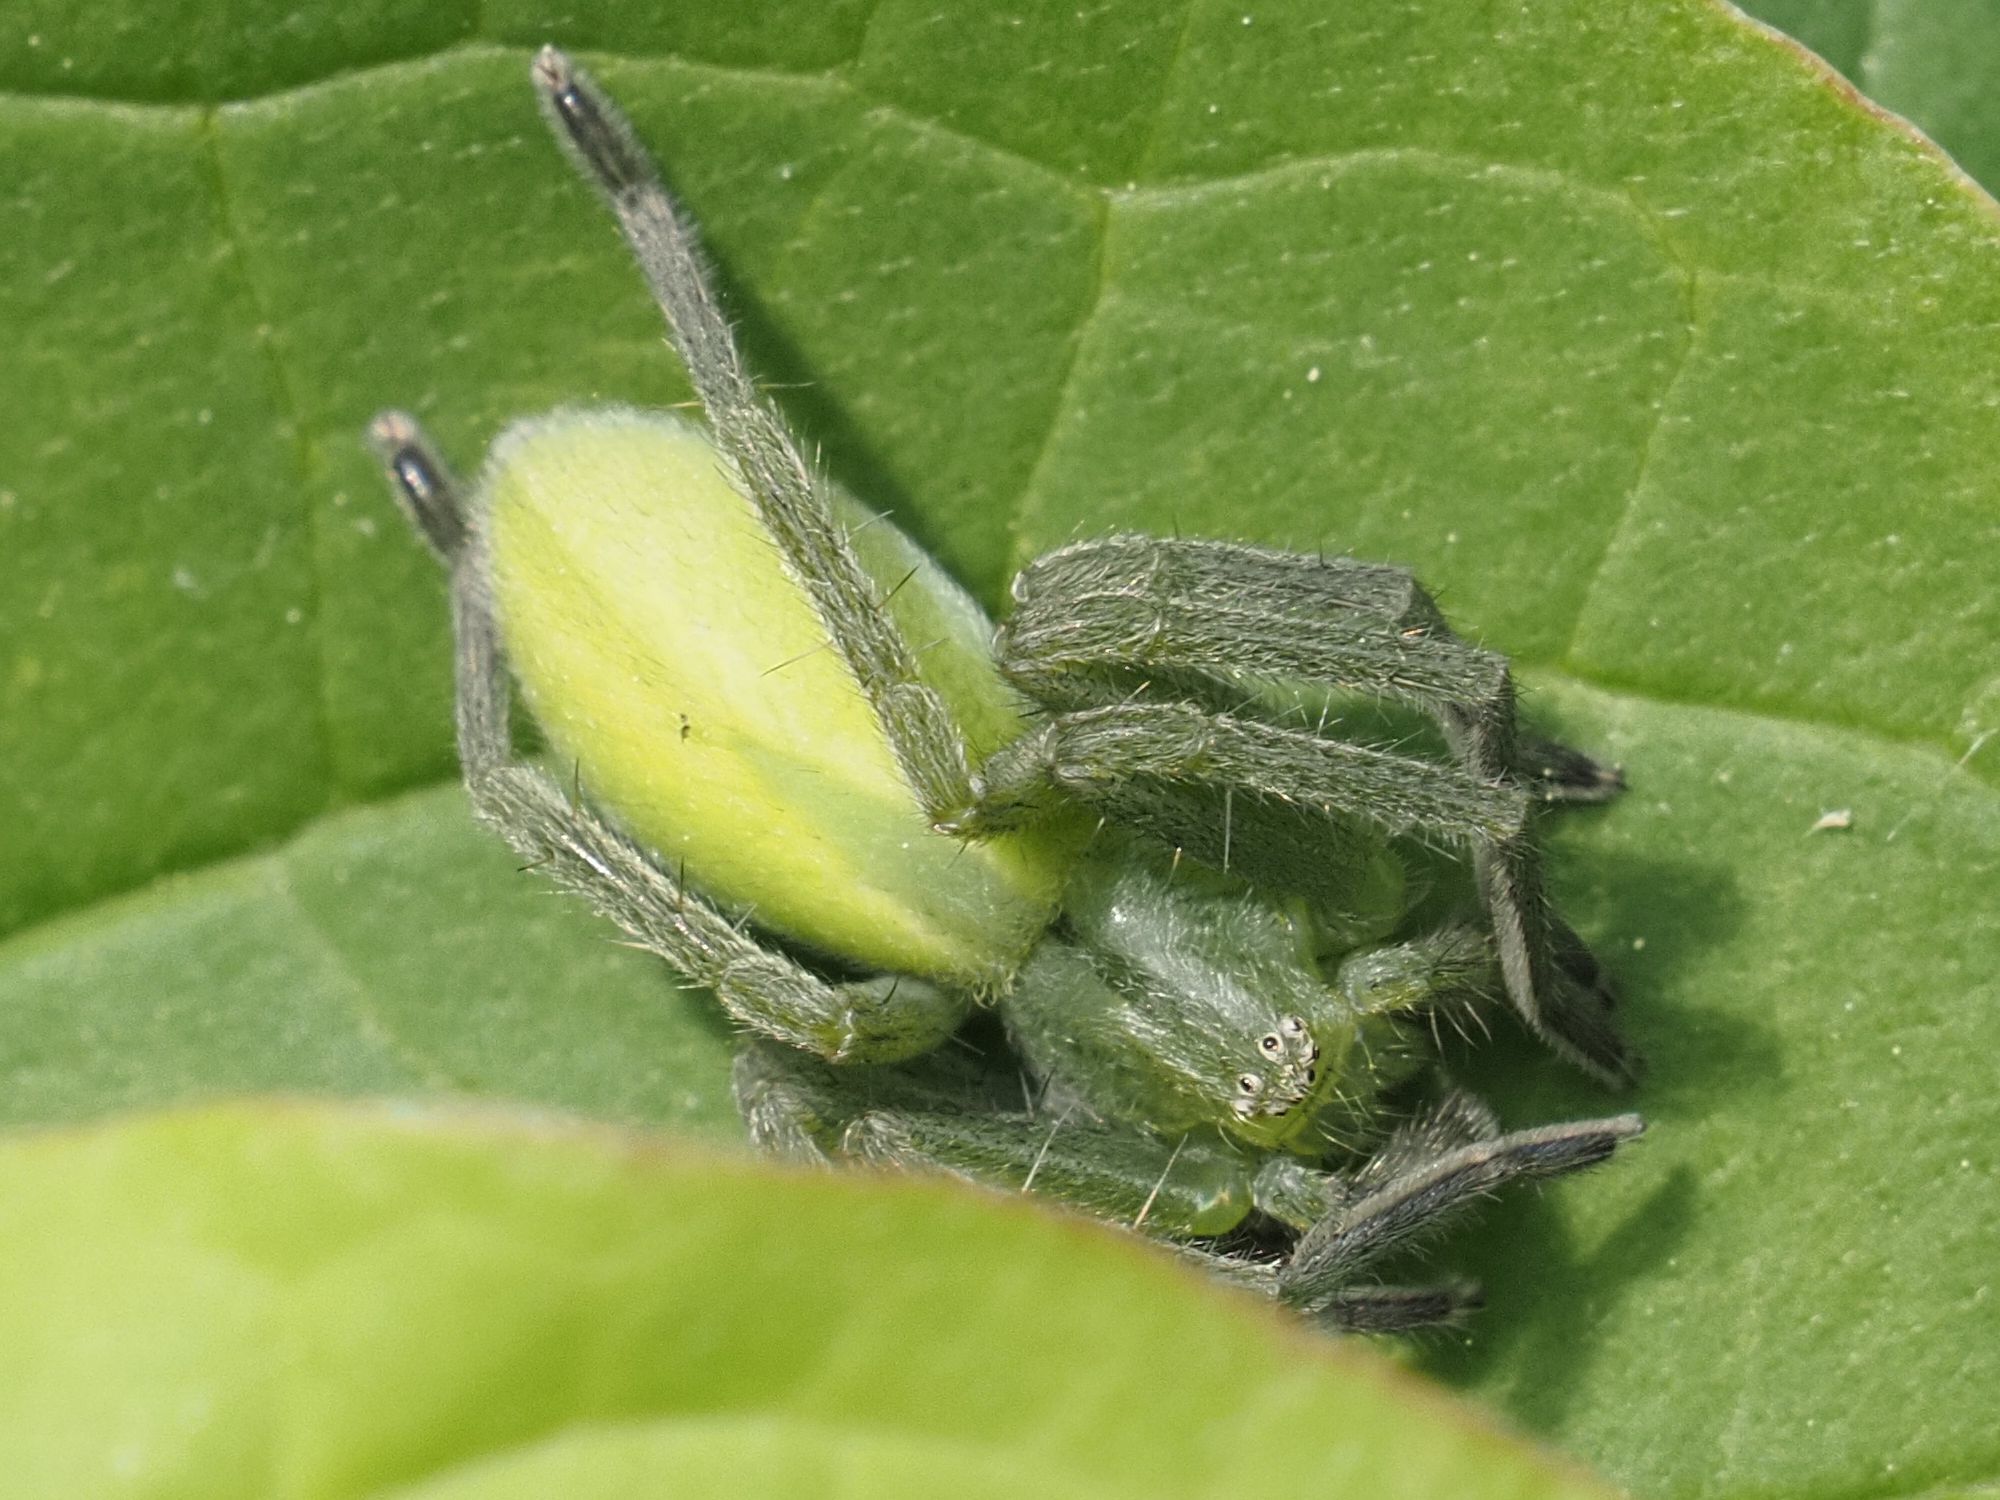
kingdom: Animalia
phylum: Arthropoda
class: Arachnida
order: Araneae
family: Sparassidae
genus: Micrommata
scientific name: Micrommata virescens
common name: Green spider
